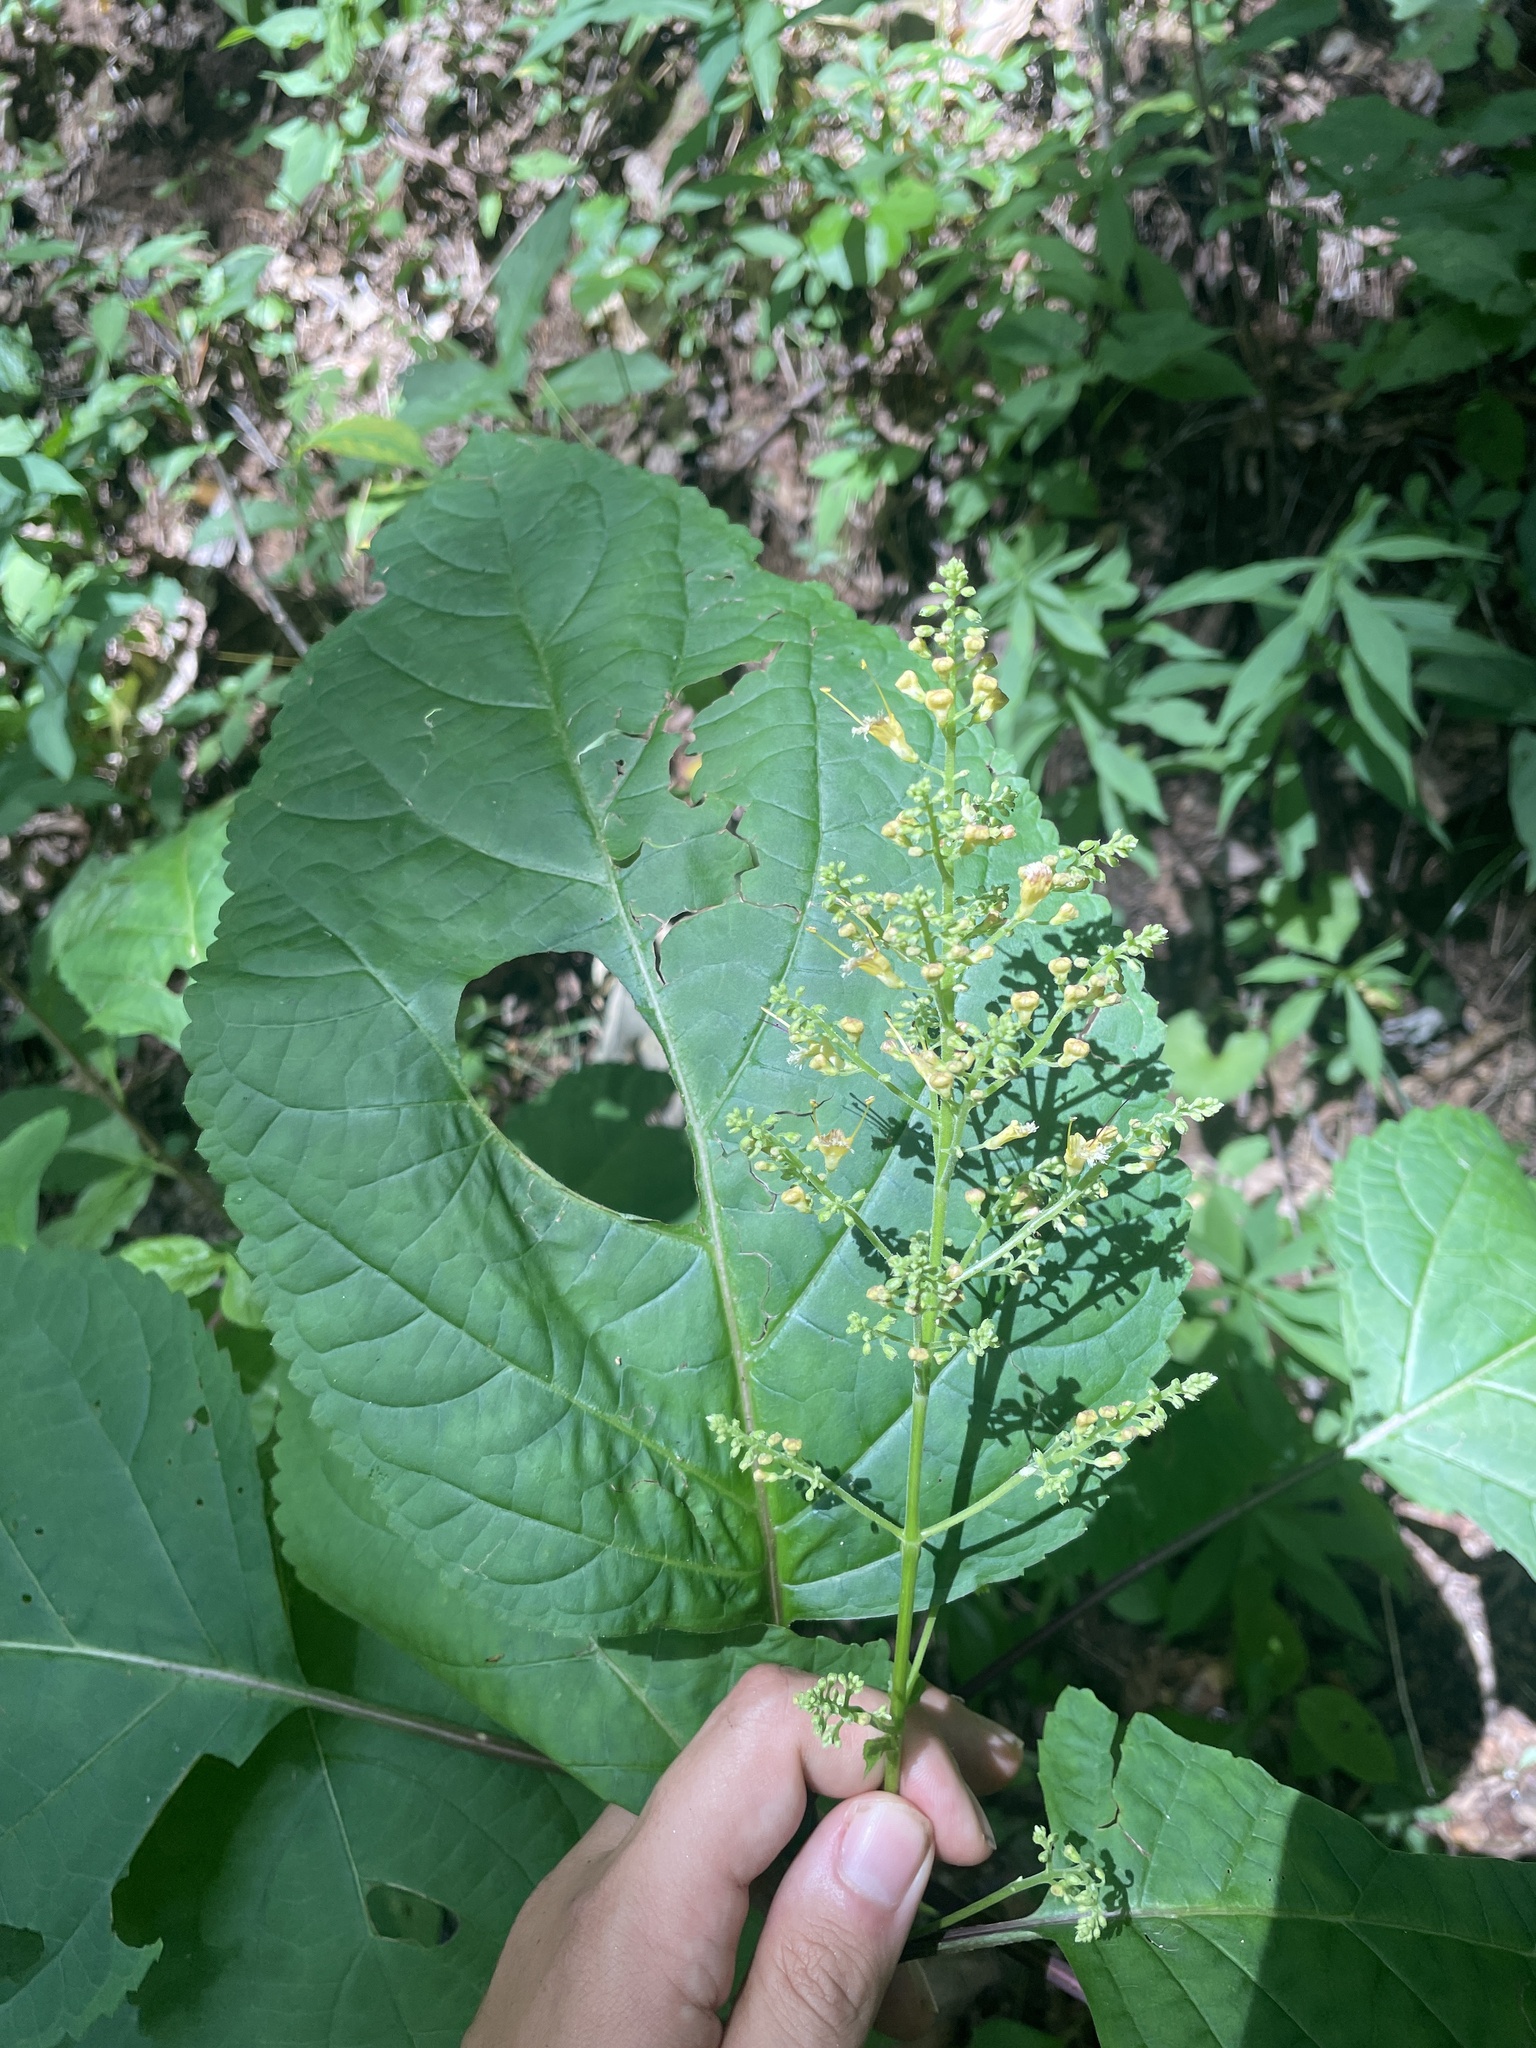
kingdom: Plantae
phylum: Tracheophyta
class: Magnoliopsida
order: Lamiales
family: Lamiaceae
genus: Collinsonia
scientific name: Collinsonia canadensis
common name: Northern horsebalm
